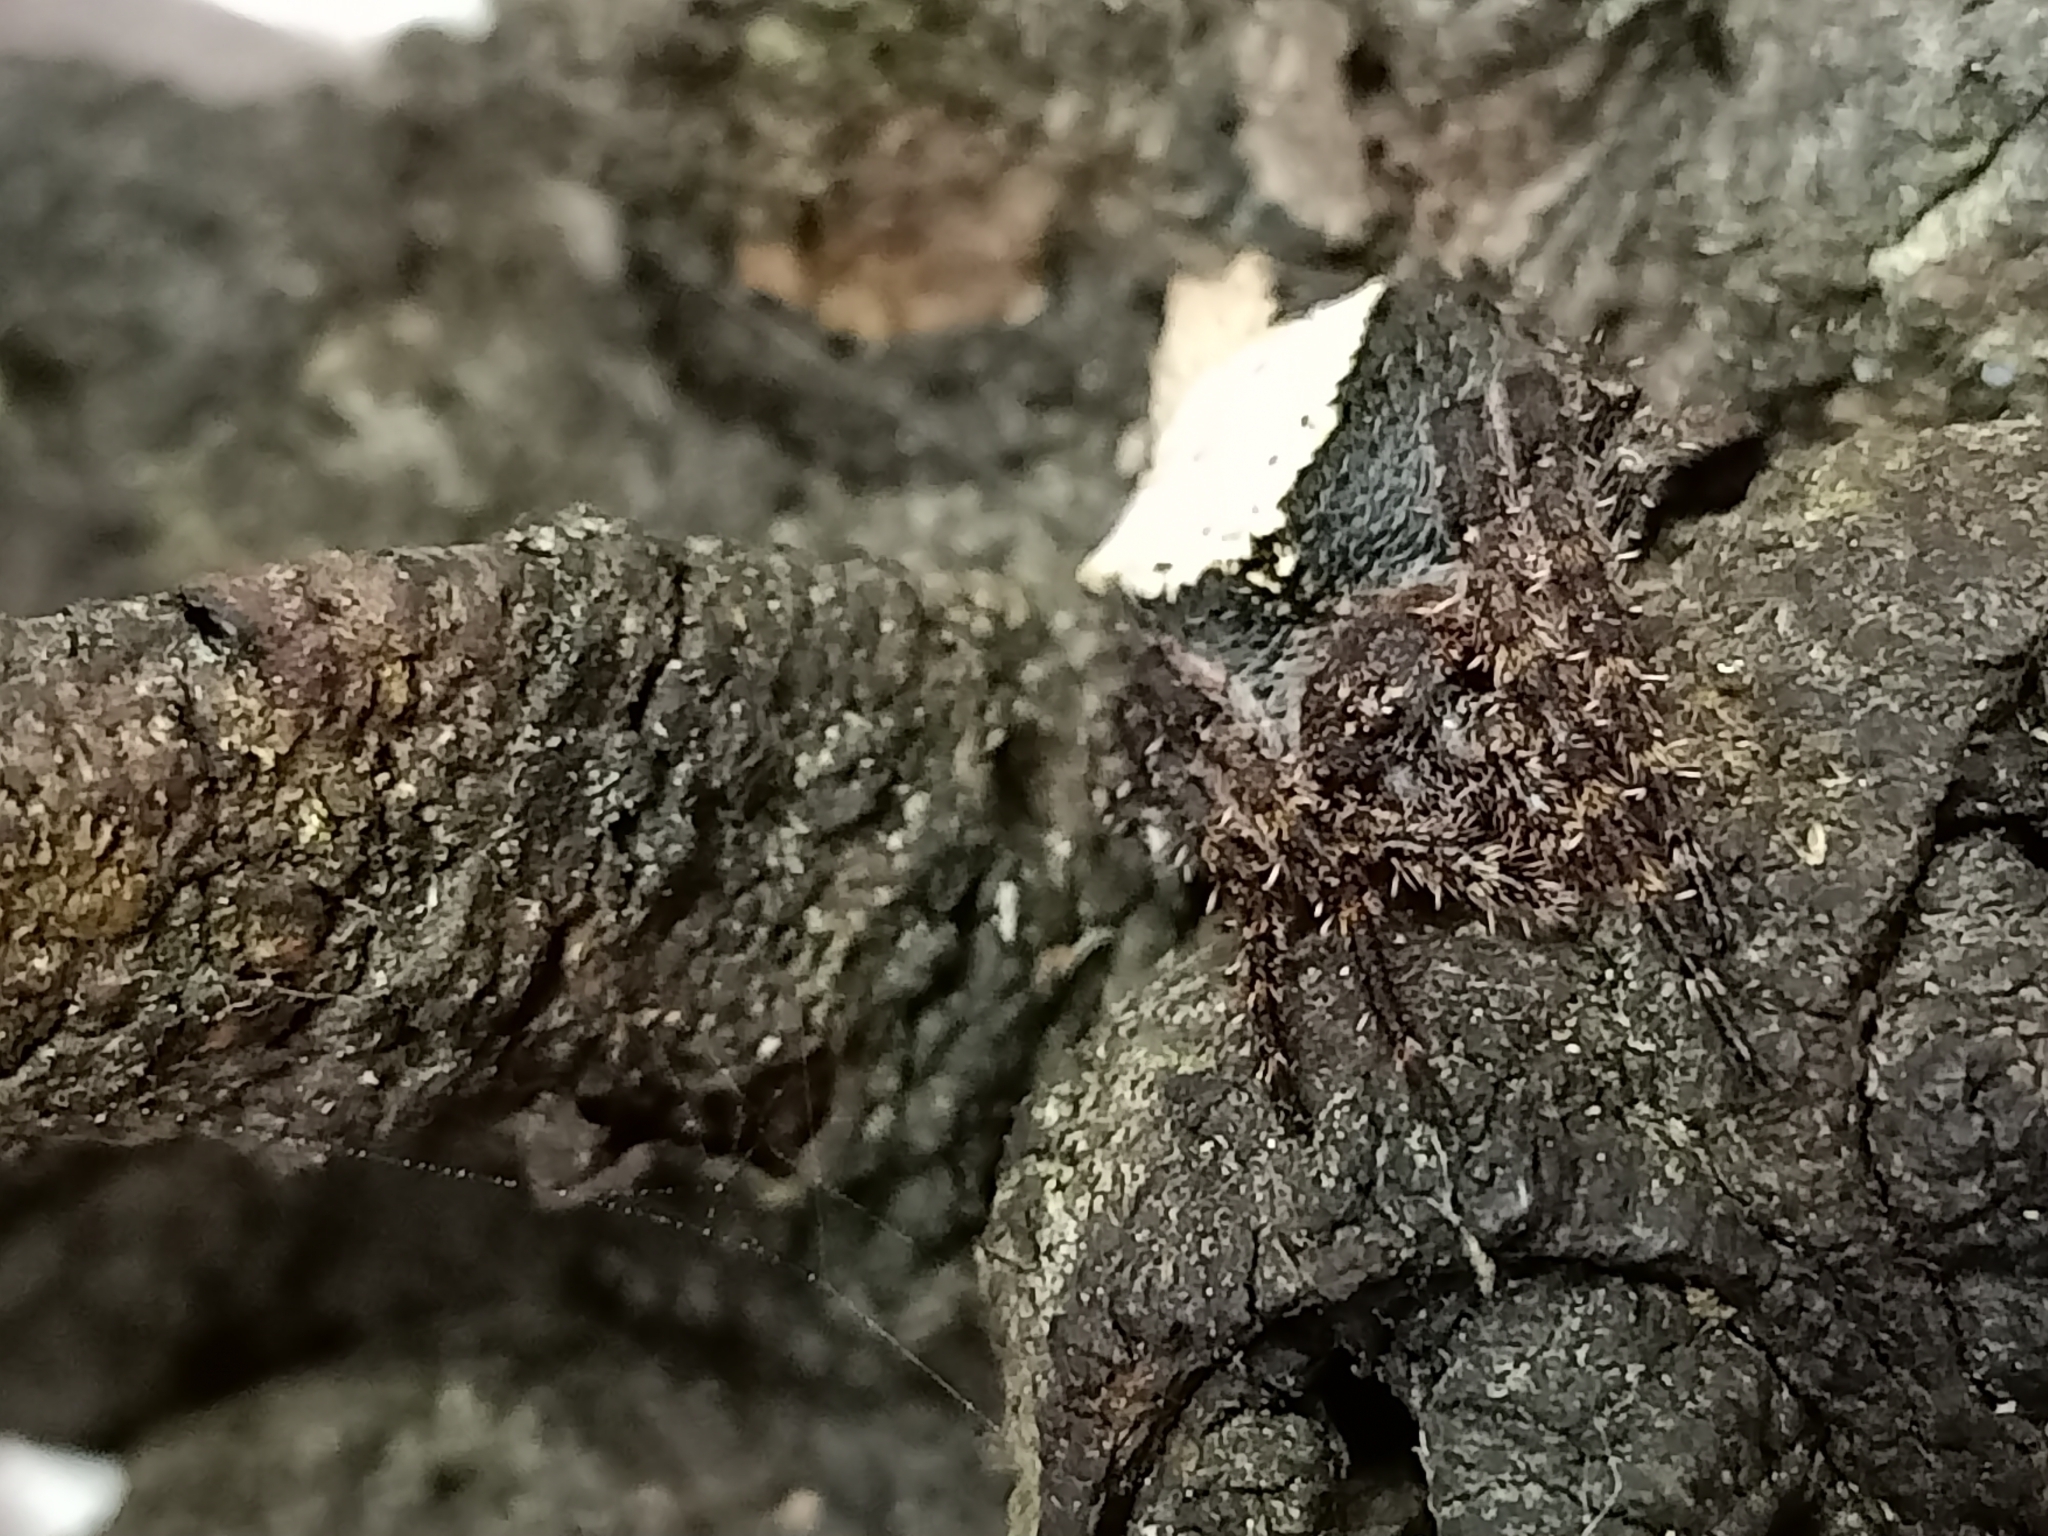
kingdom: Animalia
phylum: Arthropoda
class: Arachnida
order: Araneae
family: Araneidae
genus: Eriophora
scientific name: Eriophora pustulosa
